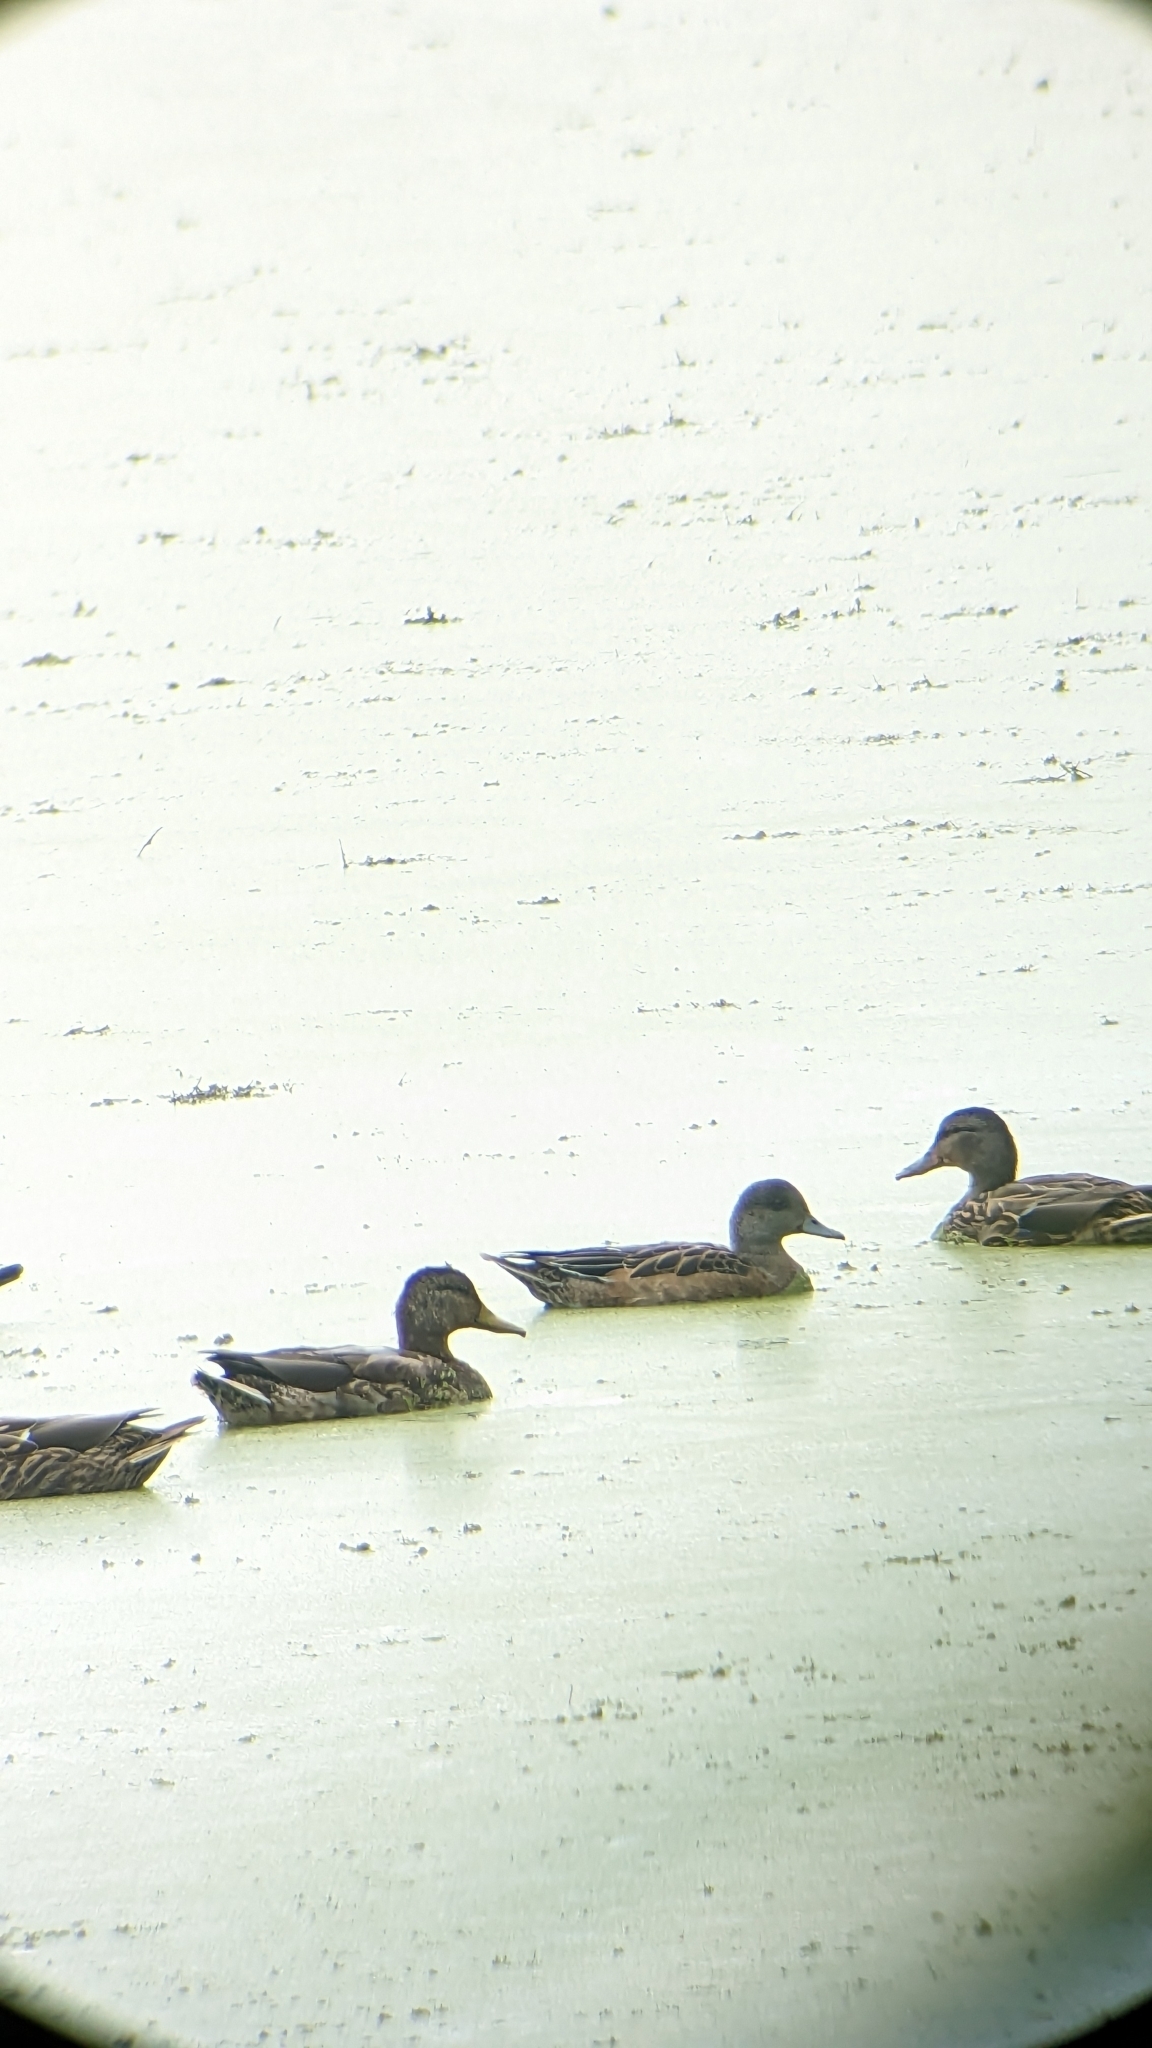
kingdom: Animalia
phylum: Chordata
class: Aves
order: Anseriformes
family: Anatidae
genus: Mareca
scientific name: Mareca americana
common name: American wigeon
